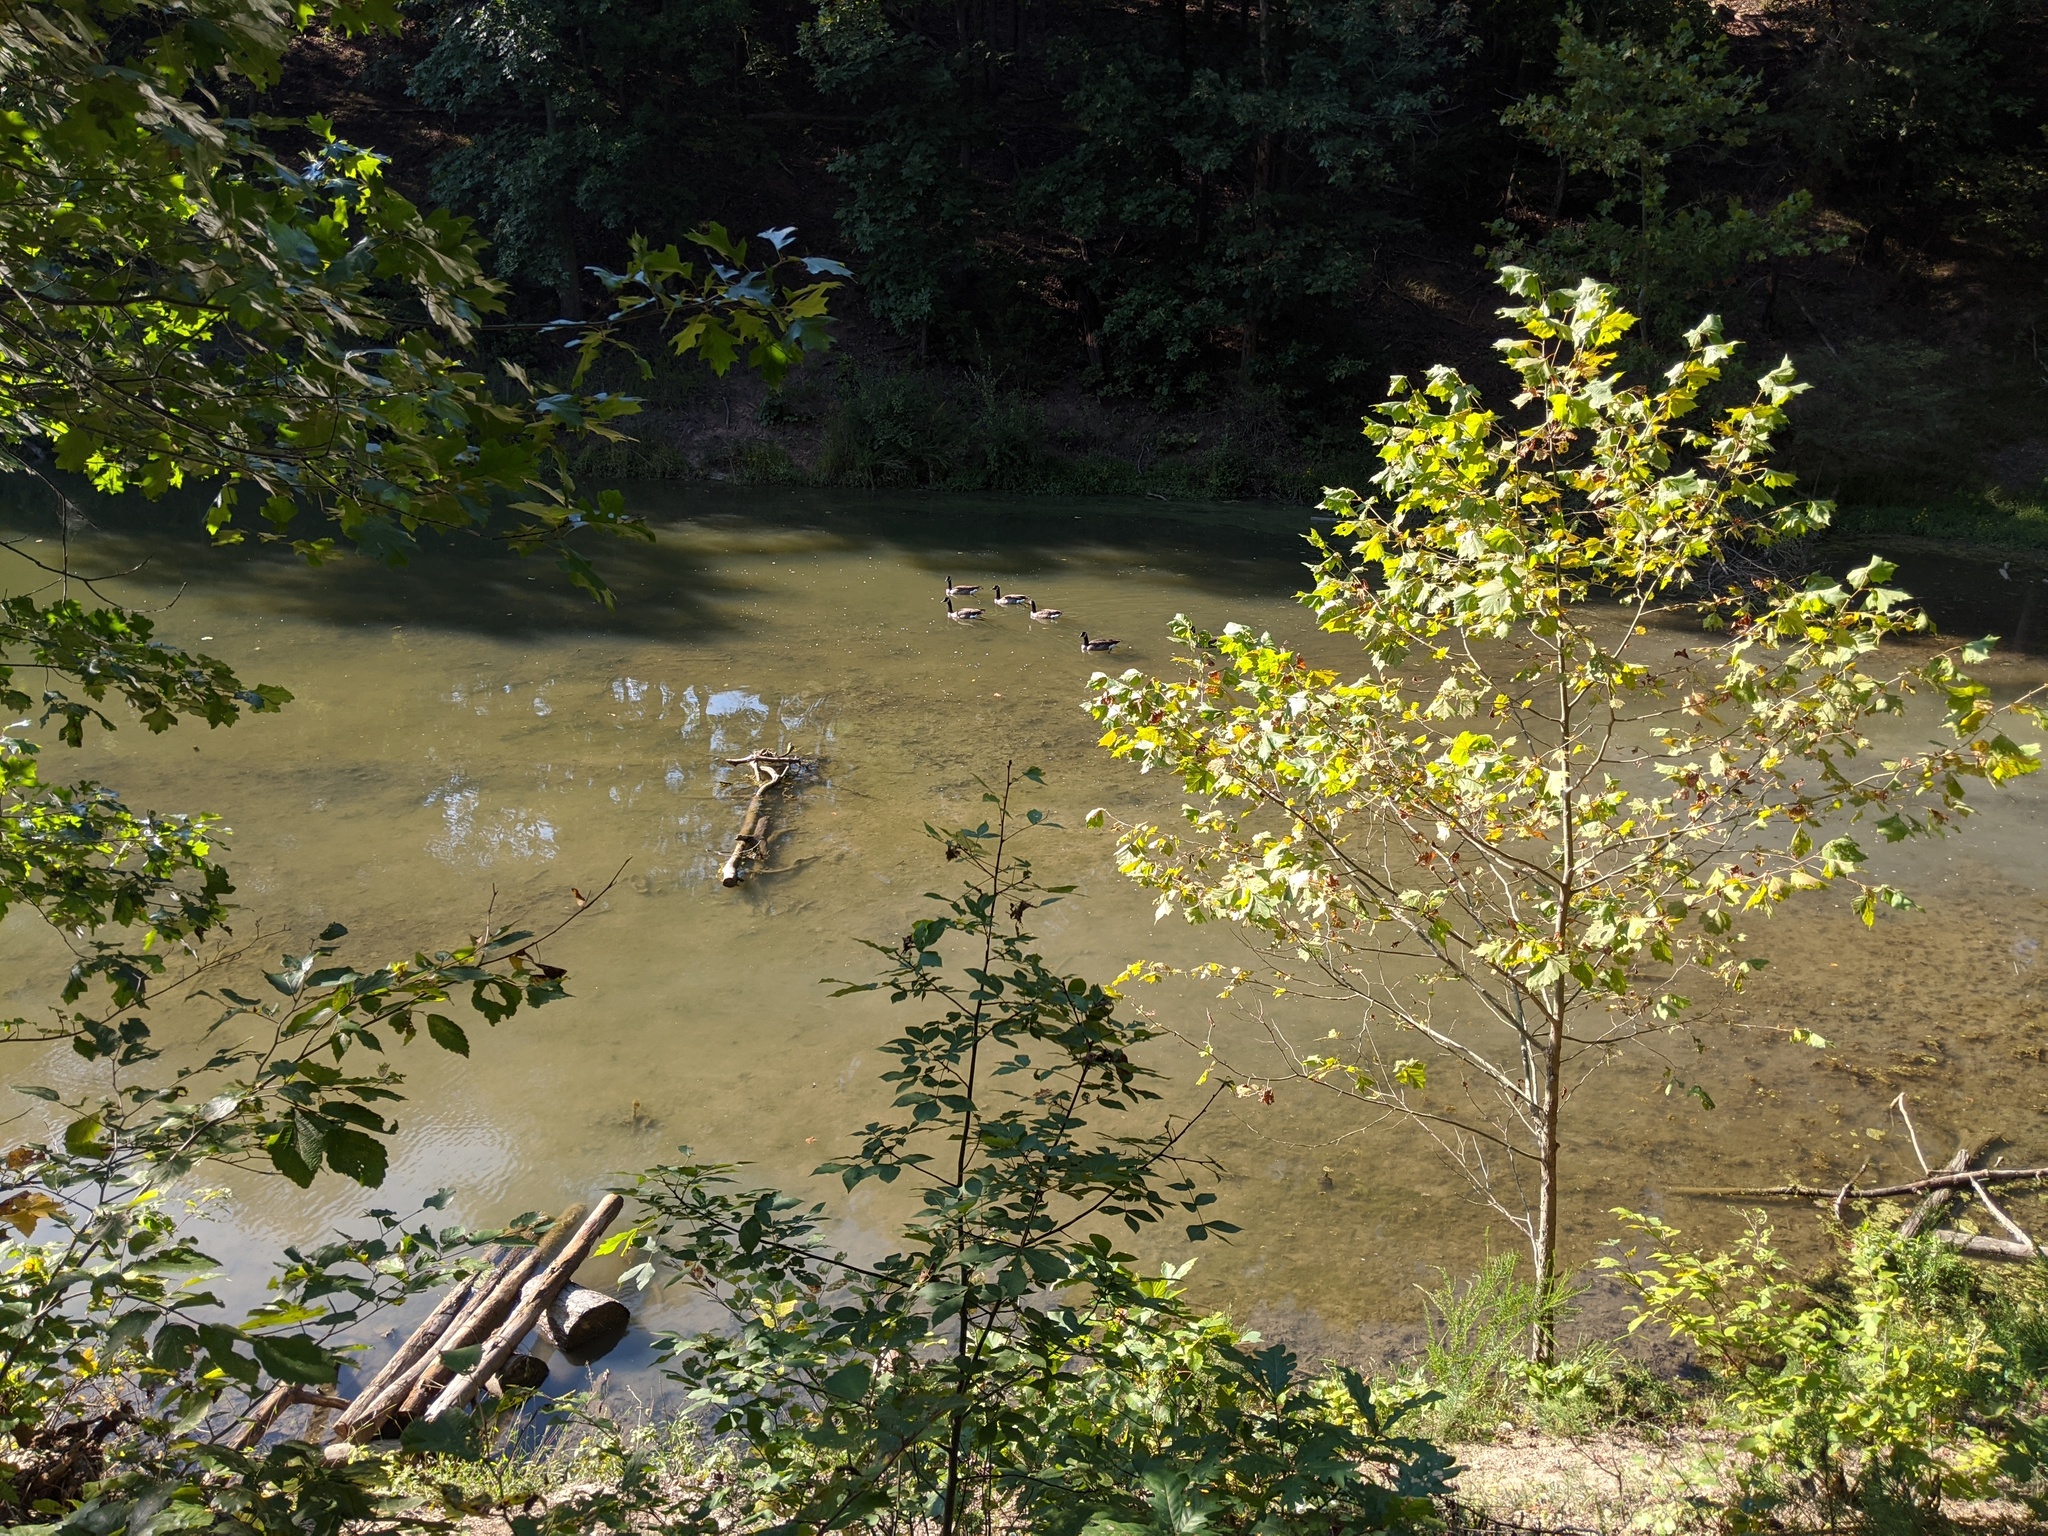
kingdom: Animalia
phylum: Chordata
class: Aves
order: Anseriformes
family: Anatidae
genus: Branta
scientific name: Branta canadensis
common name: Canada goose
